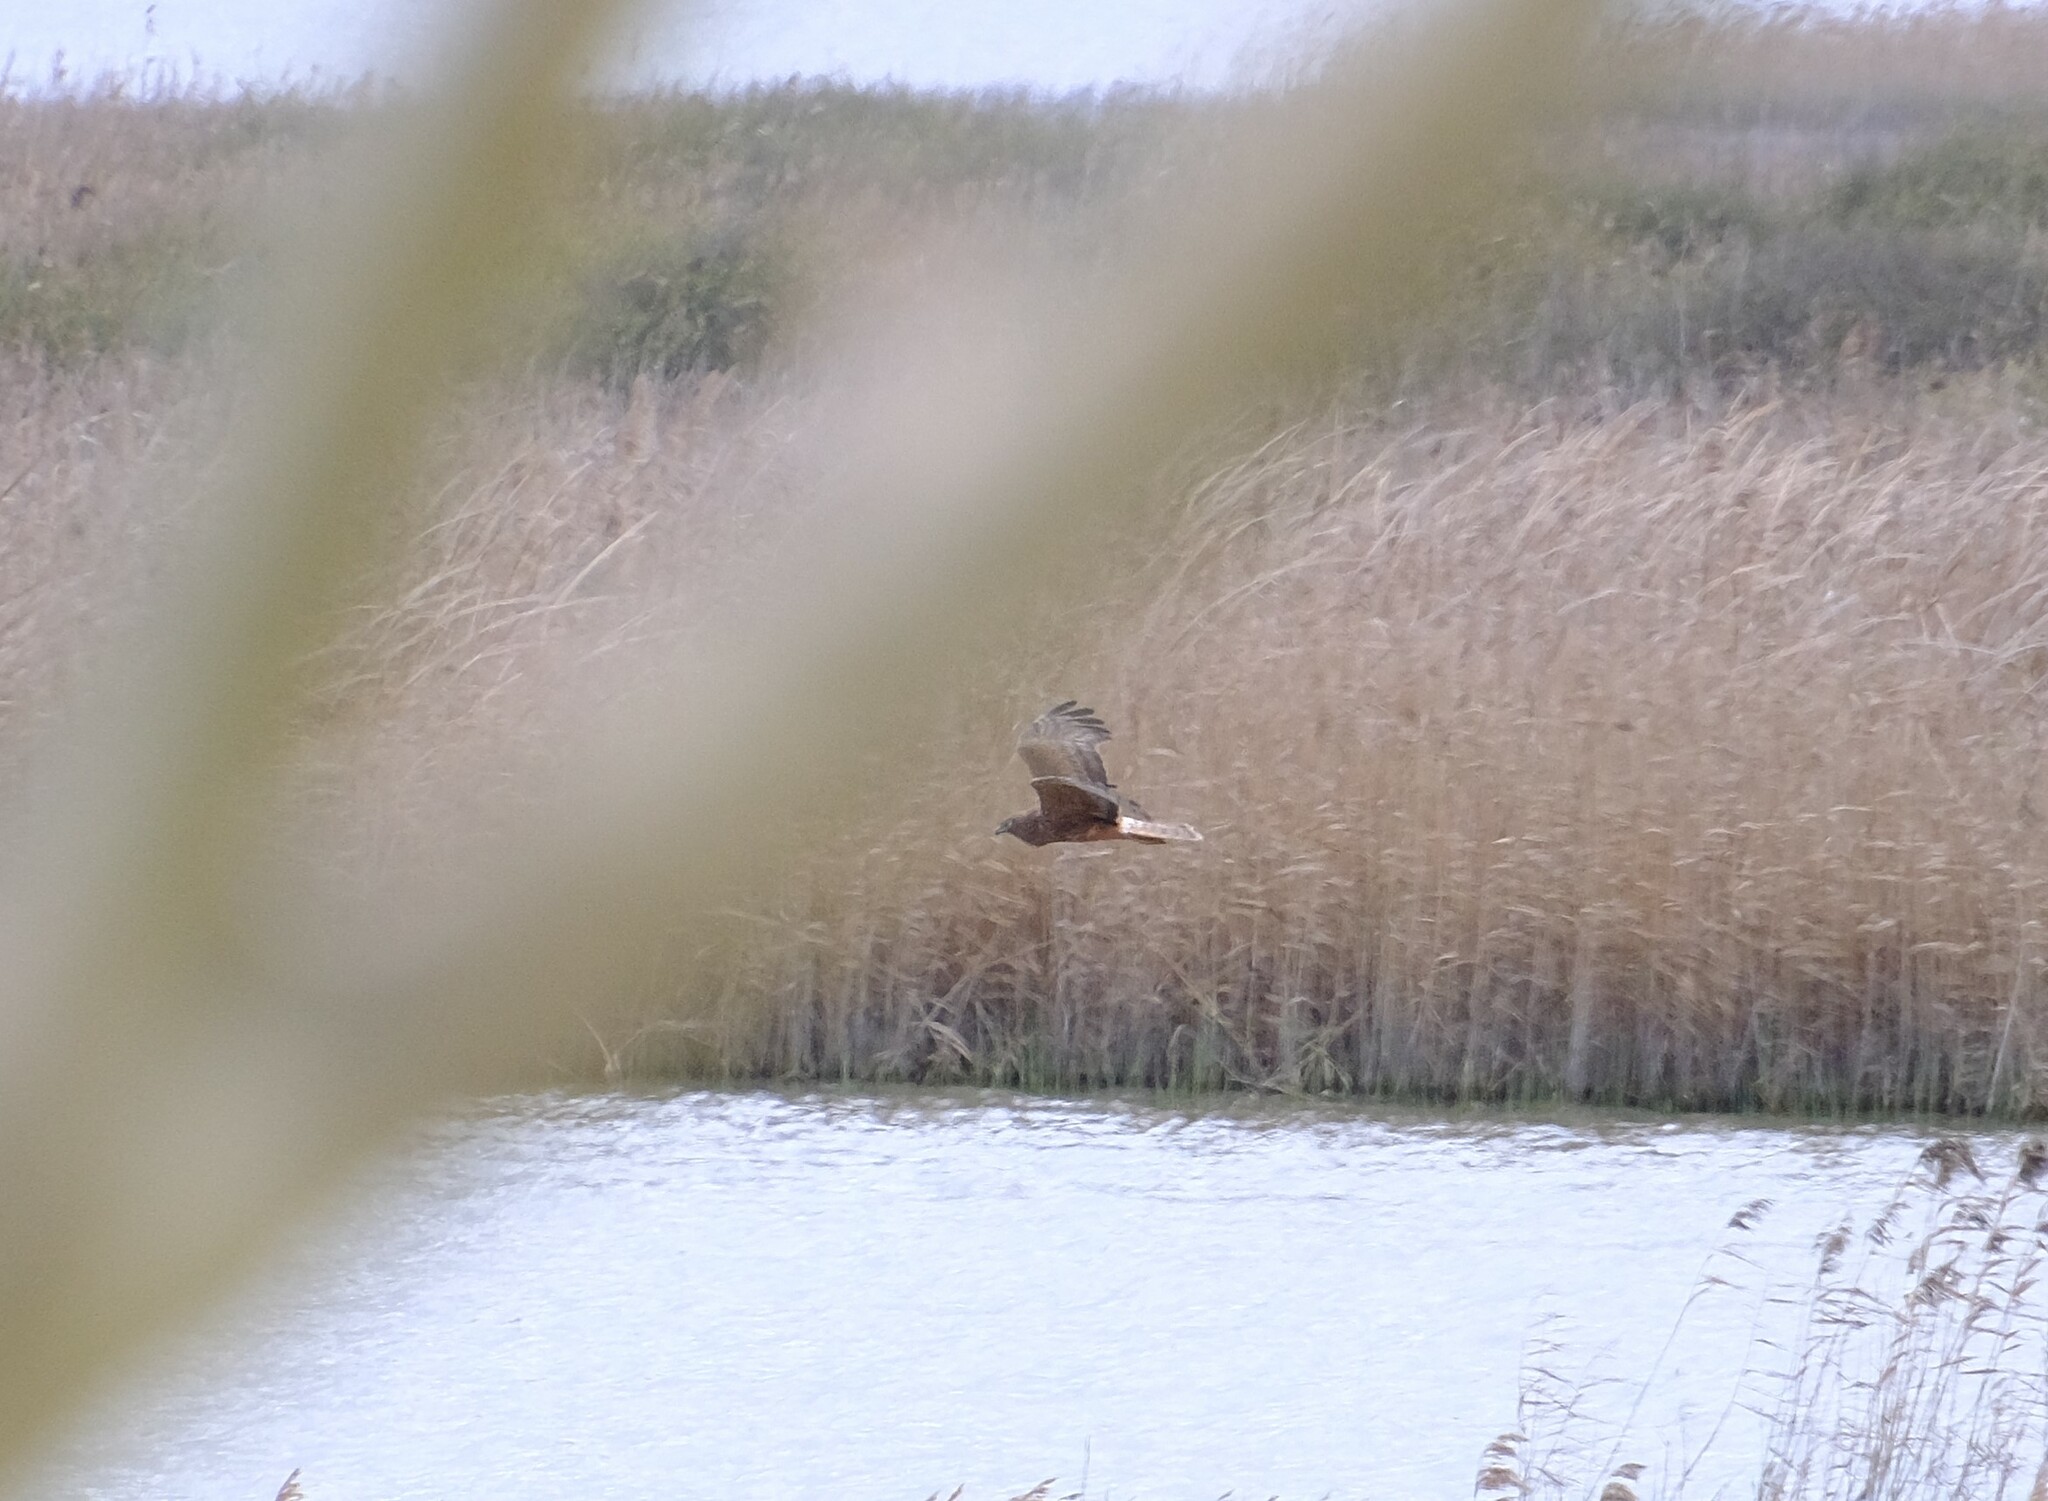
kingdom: Animalia
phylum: Chordata
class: Aves
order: Accipitriformes
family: Accipitridae
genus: Circus
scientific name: Circus approximans
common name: Swamp harrier
